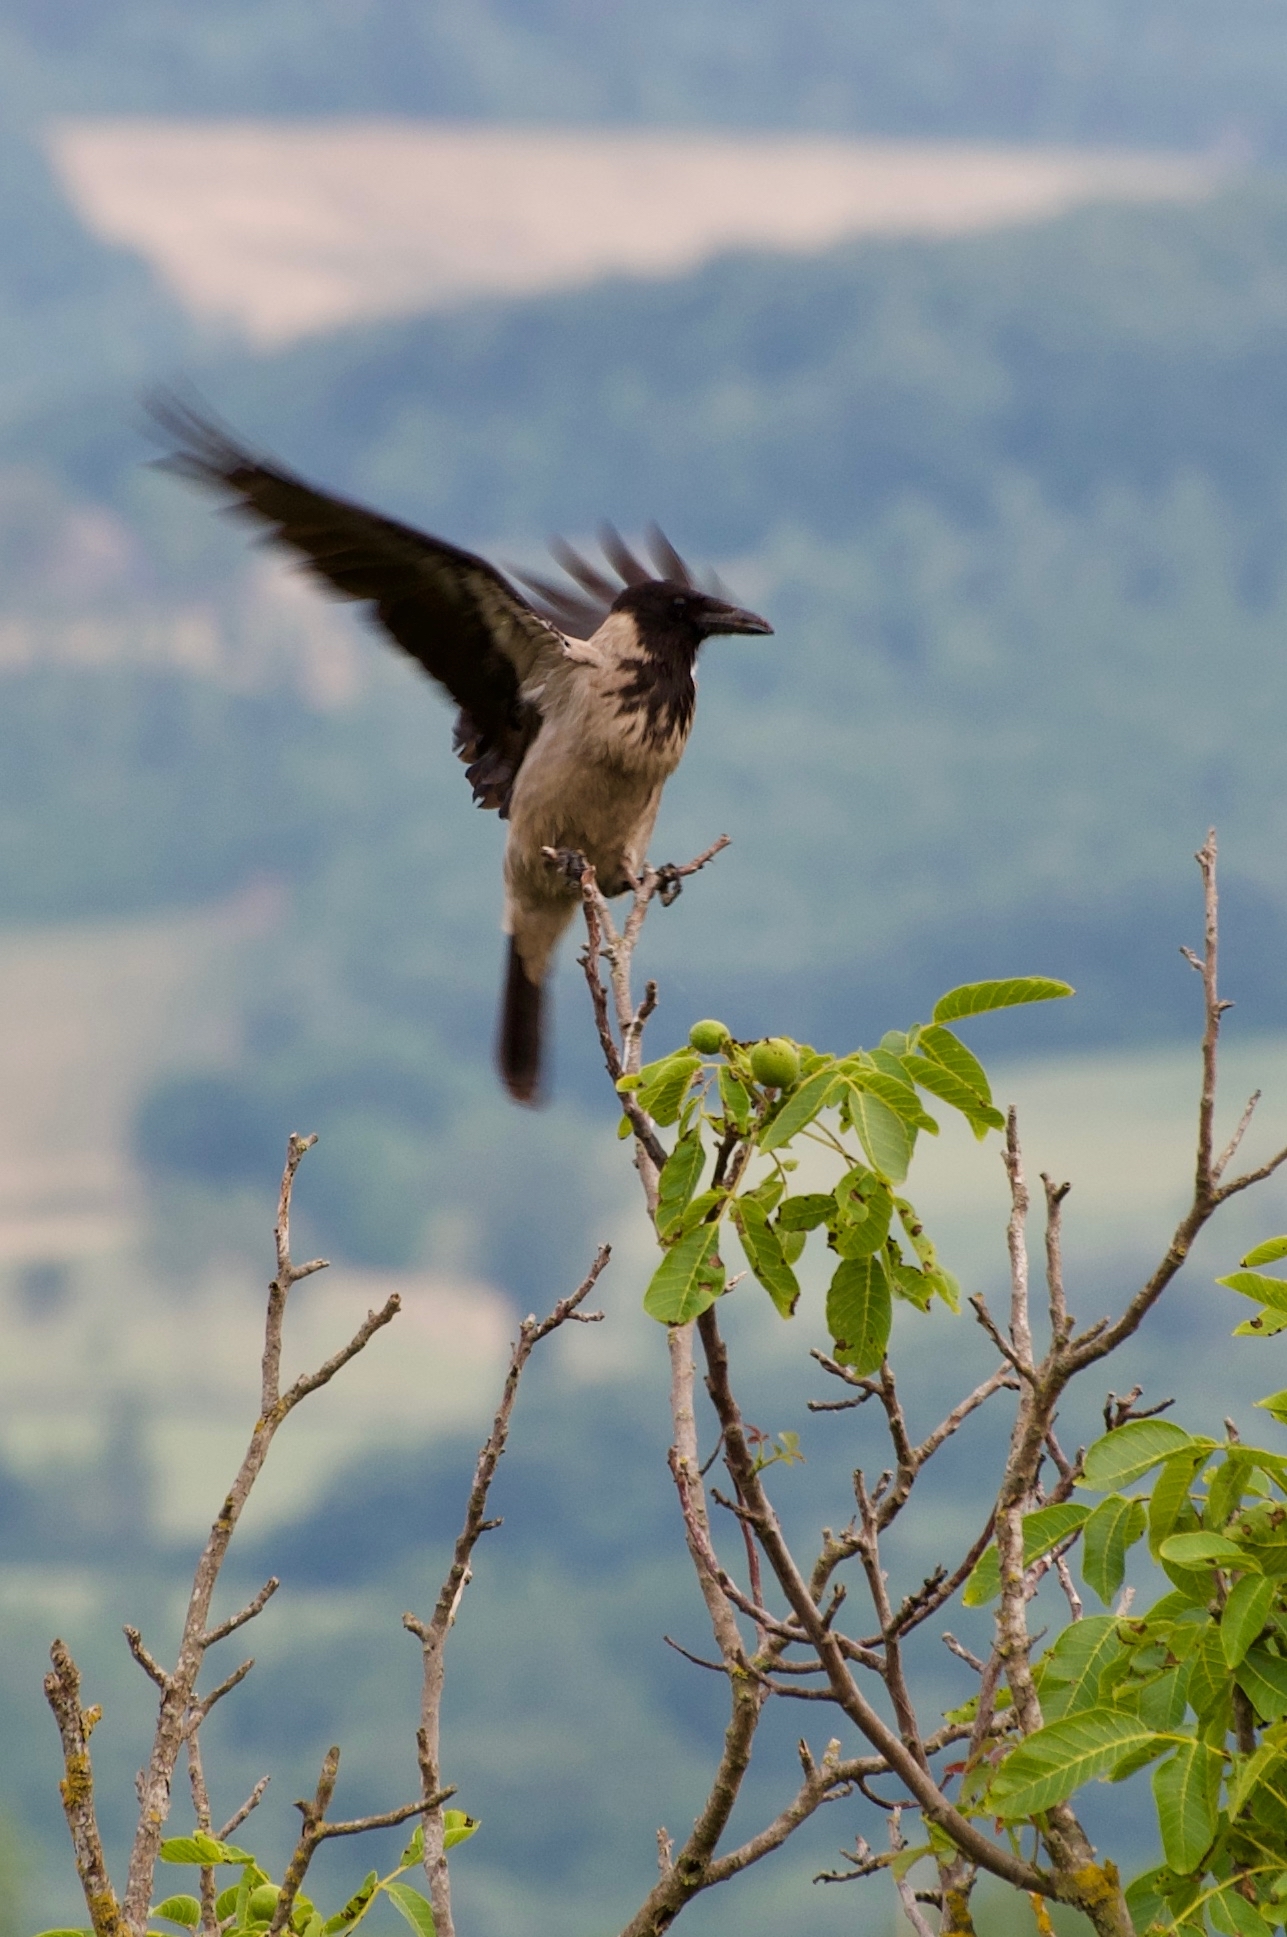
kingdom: Animalia
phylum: Chordata
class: Aves
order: Passeriformes
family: Corvidae
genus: Corvus
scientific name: Corvus cornix
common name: Hooded crow
